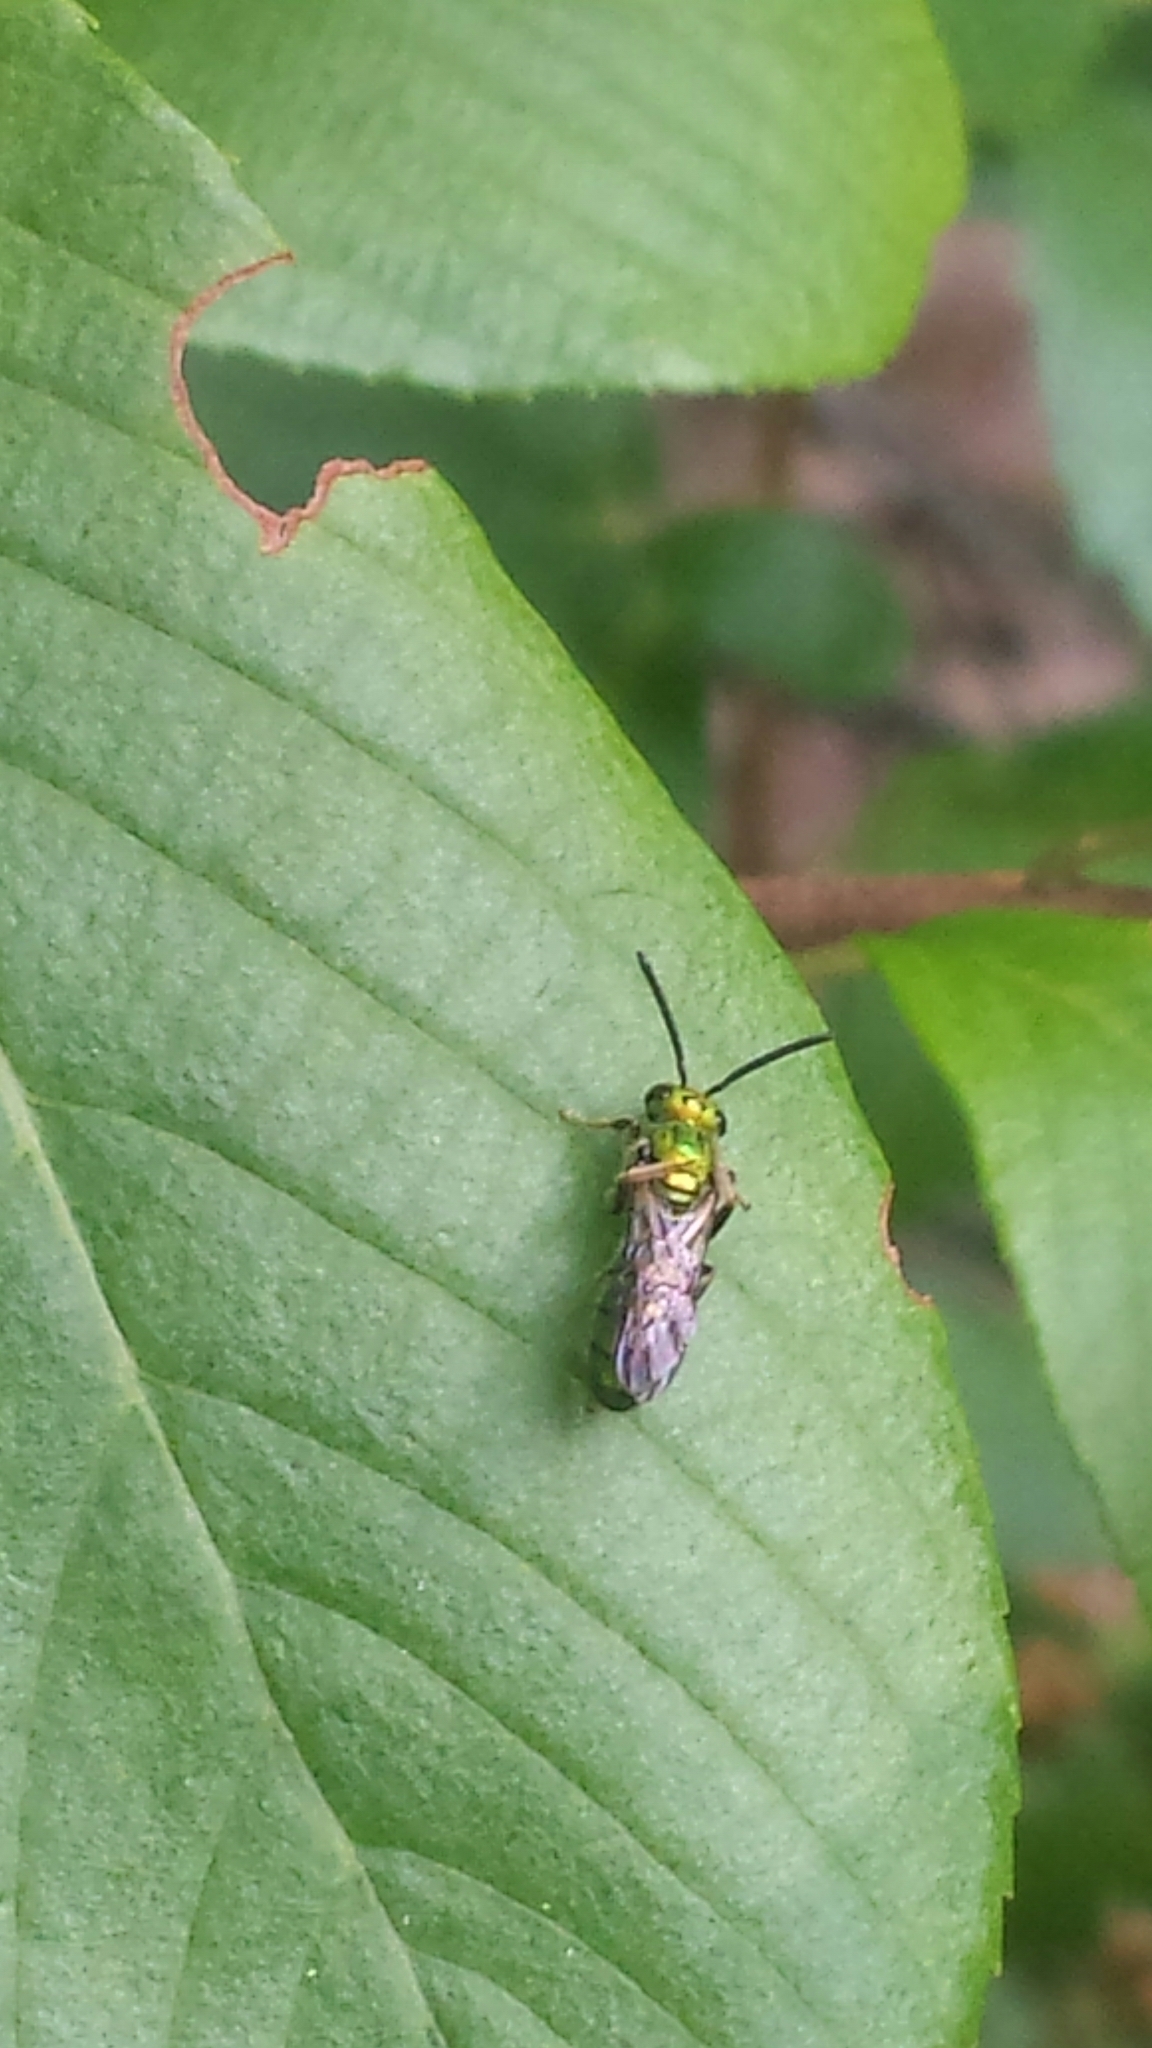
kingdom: Animalia
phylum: Arthropoda
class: Insecta
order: Hymenoptera
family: Halictidae
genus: Augochlora
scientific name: Augochlora pura
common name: Pure green sweat bee
